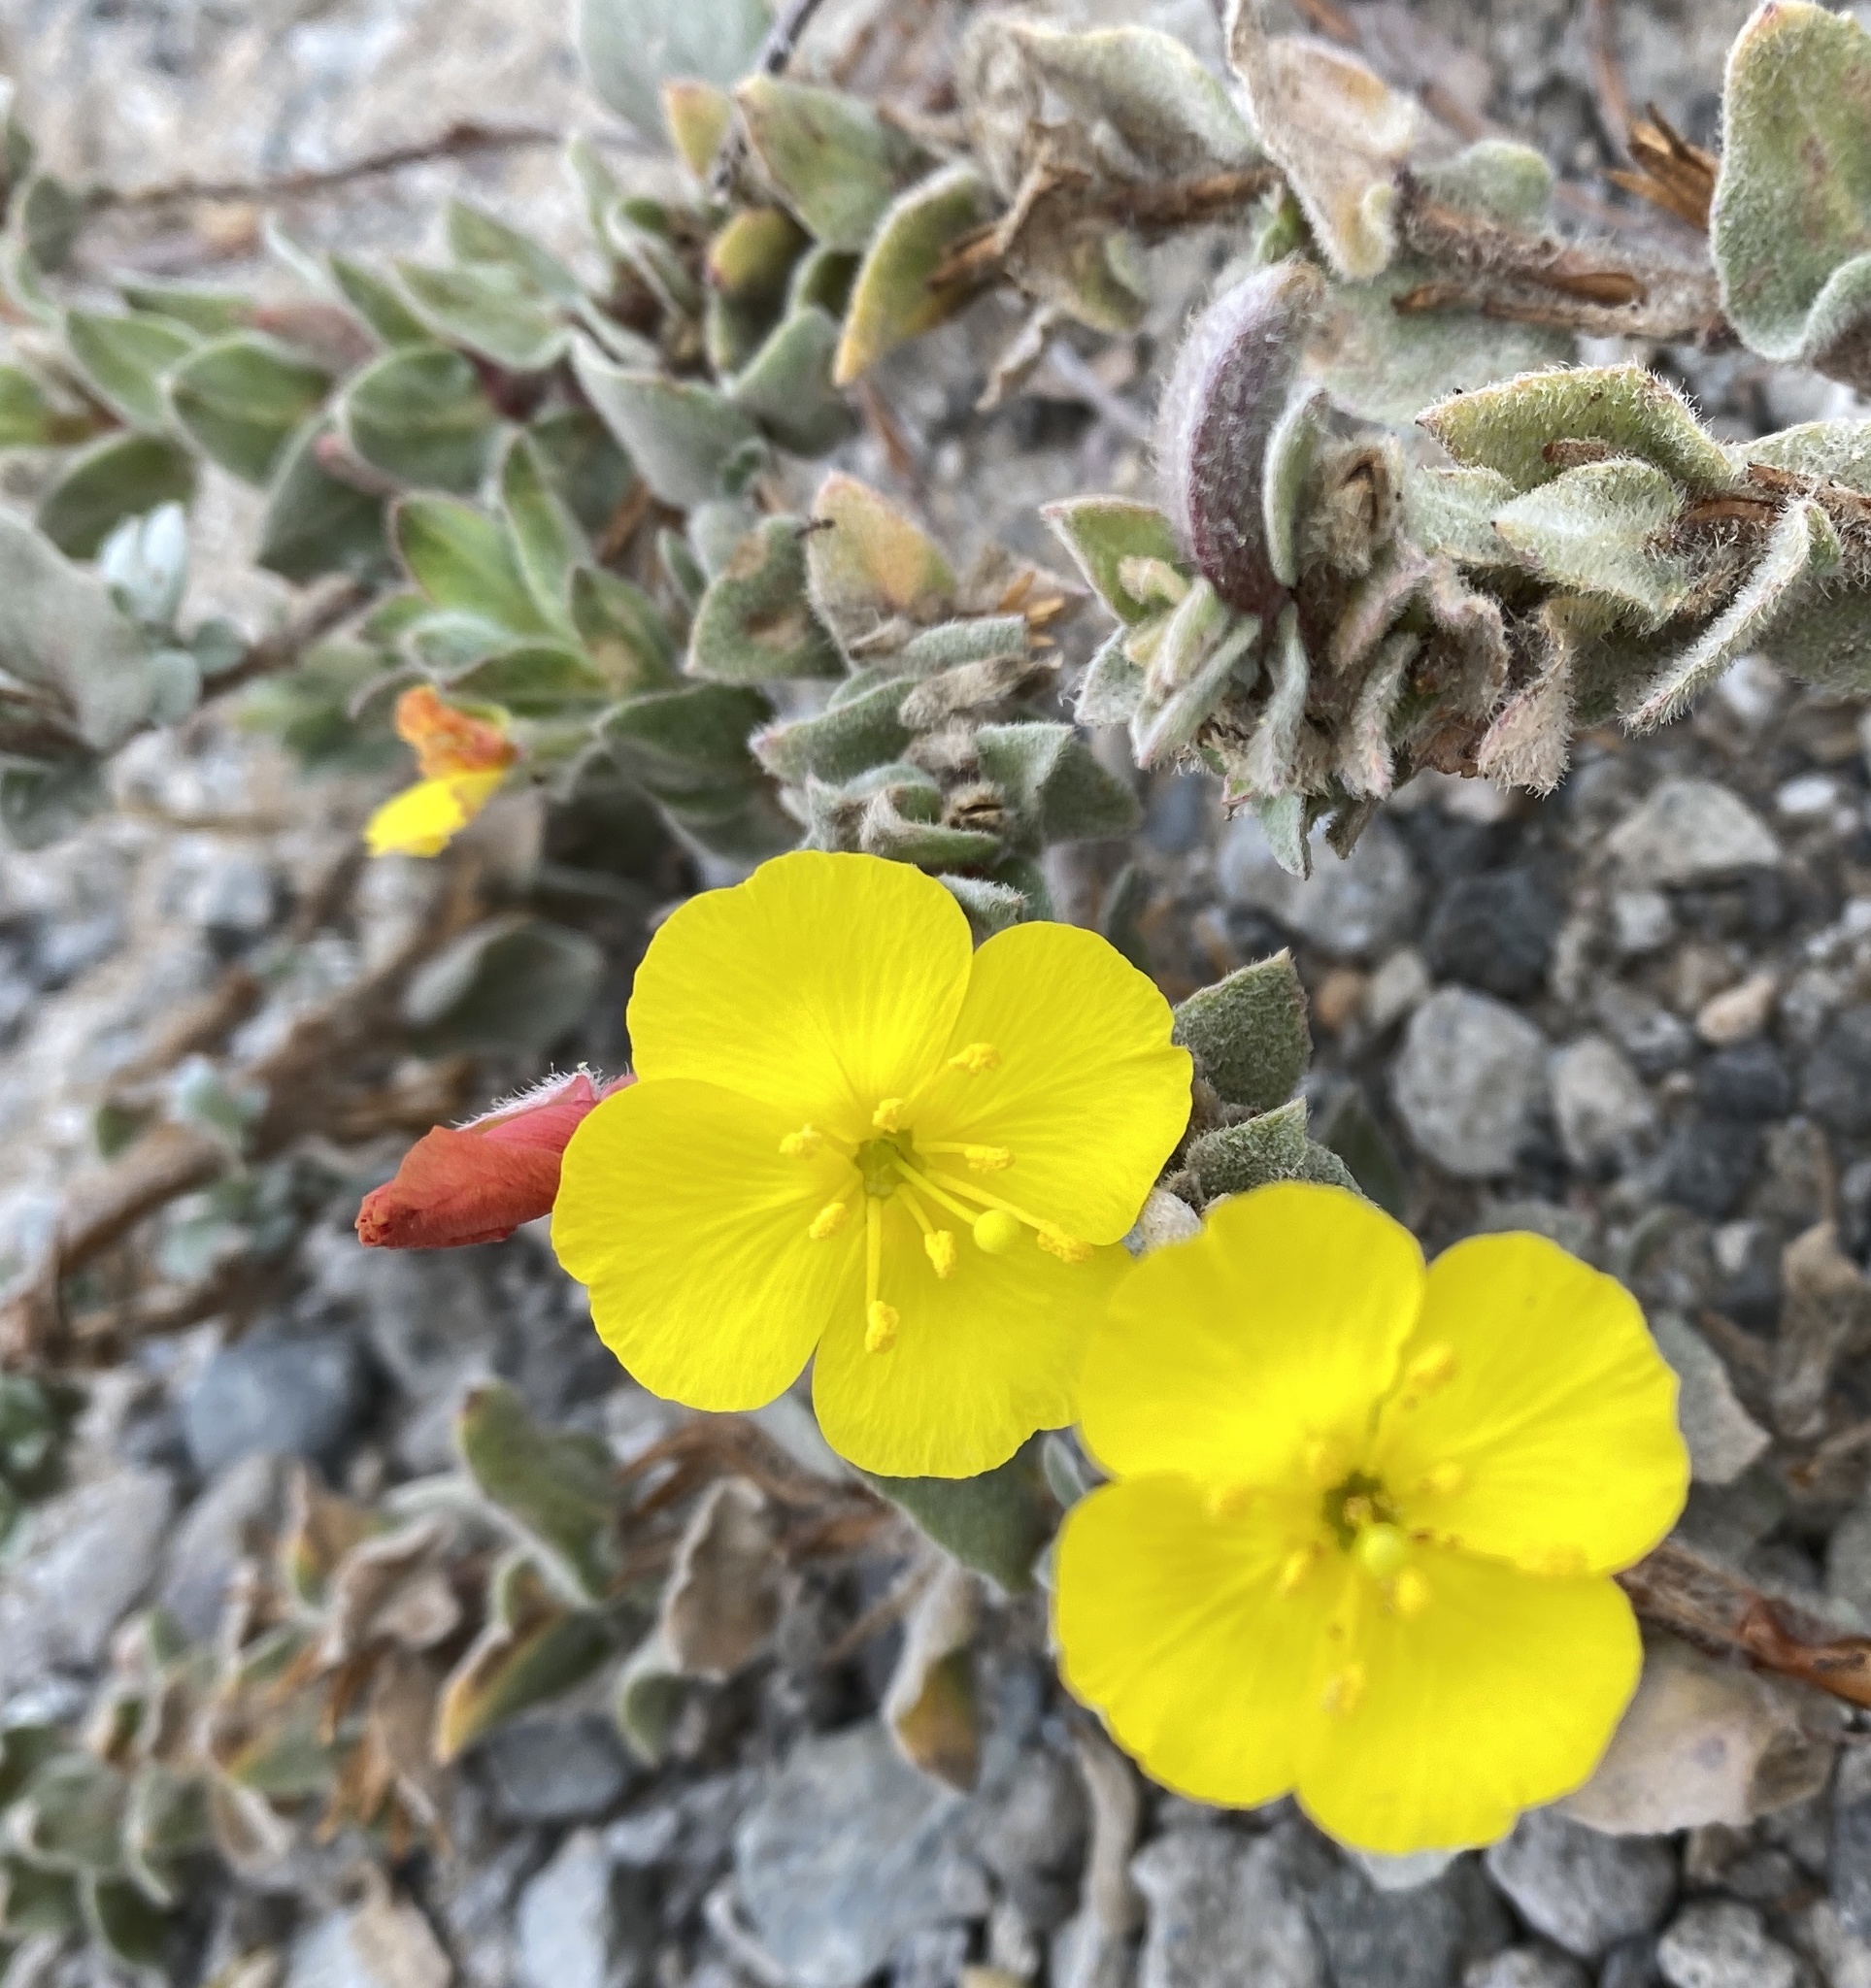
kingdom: Plantae
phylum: Tracheophyta
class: Magnoliopsida
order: Myrtales
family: Onagraceae
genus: Camissoniopsis
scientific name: Camissoniopsis cheiranthifolia
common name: Beach suncup
